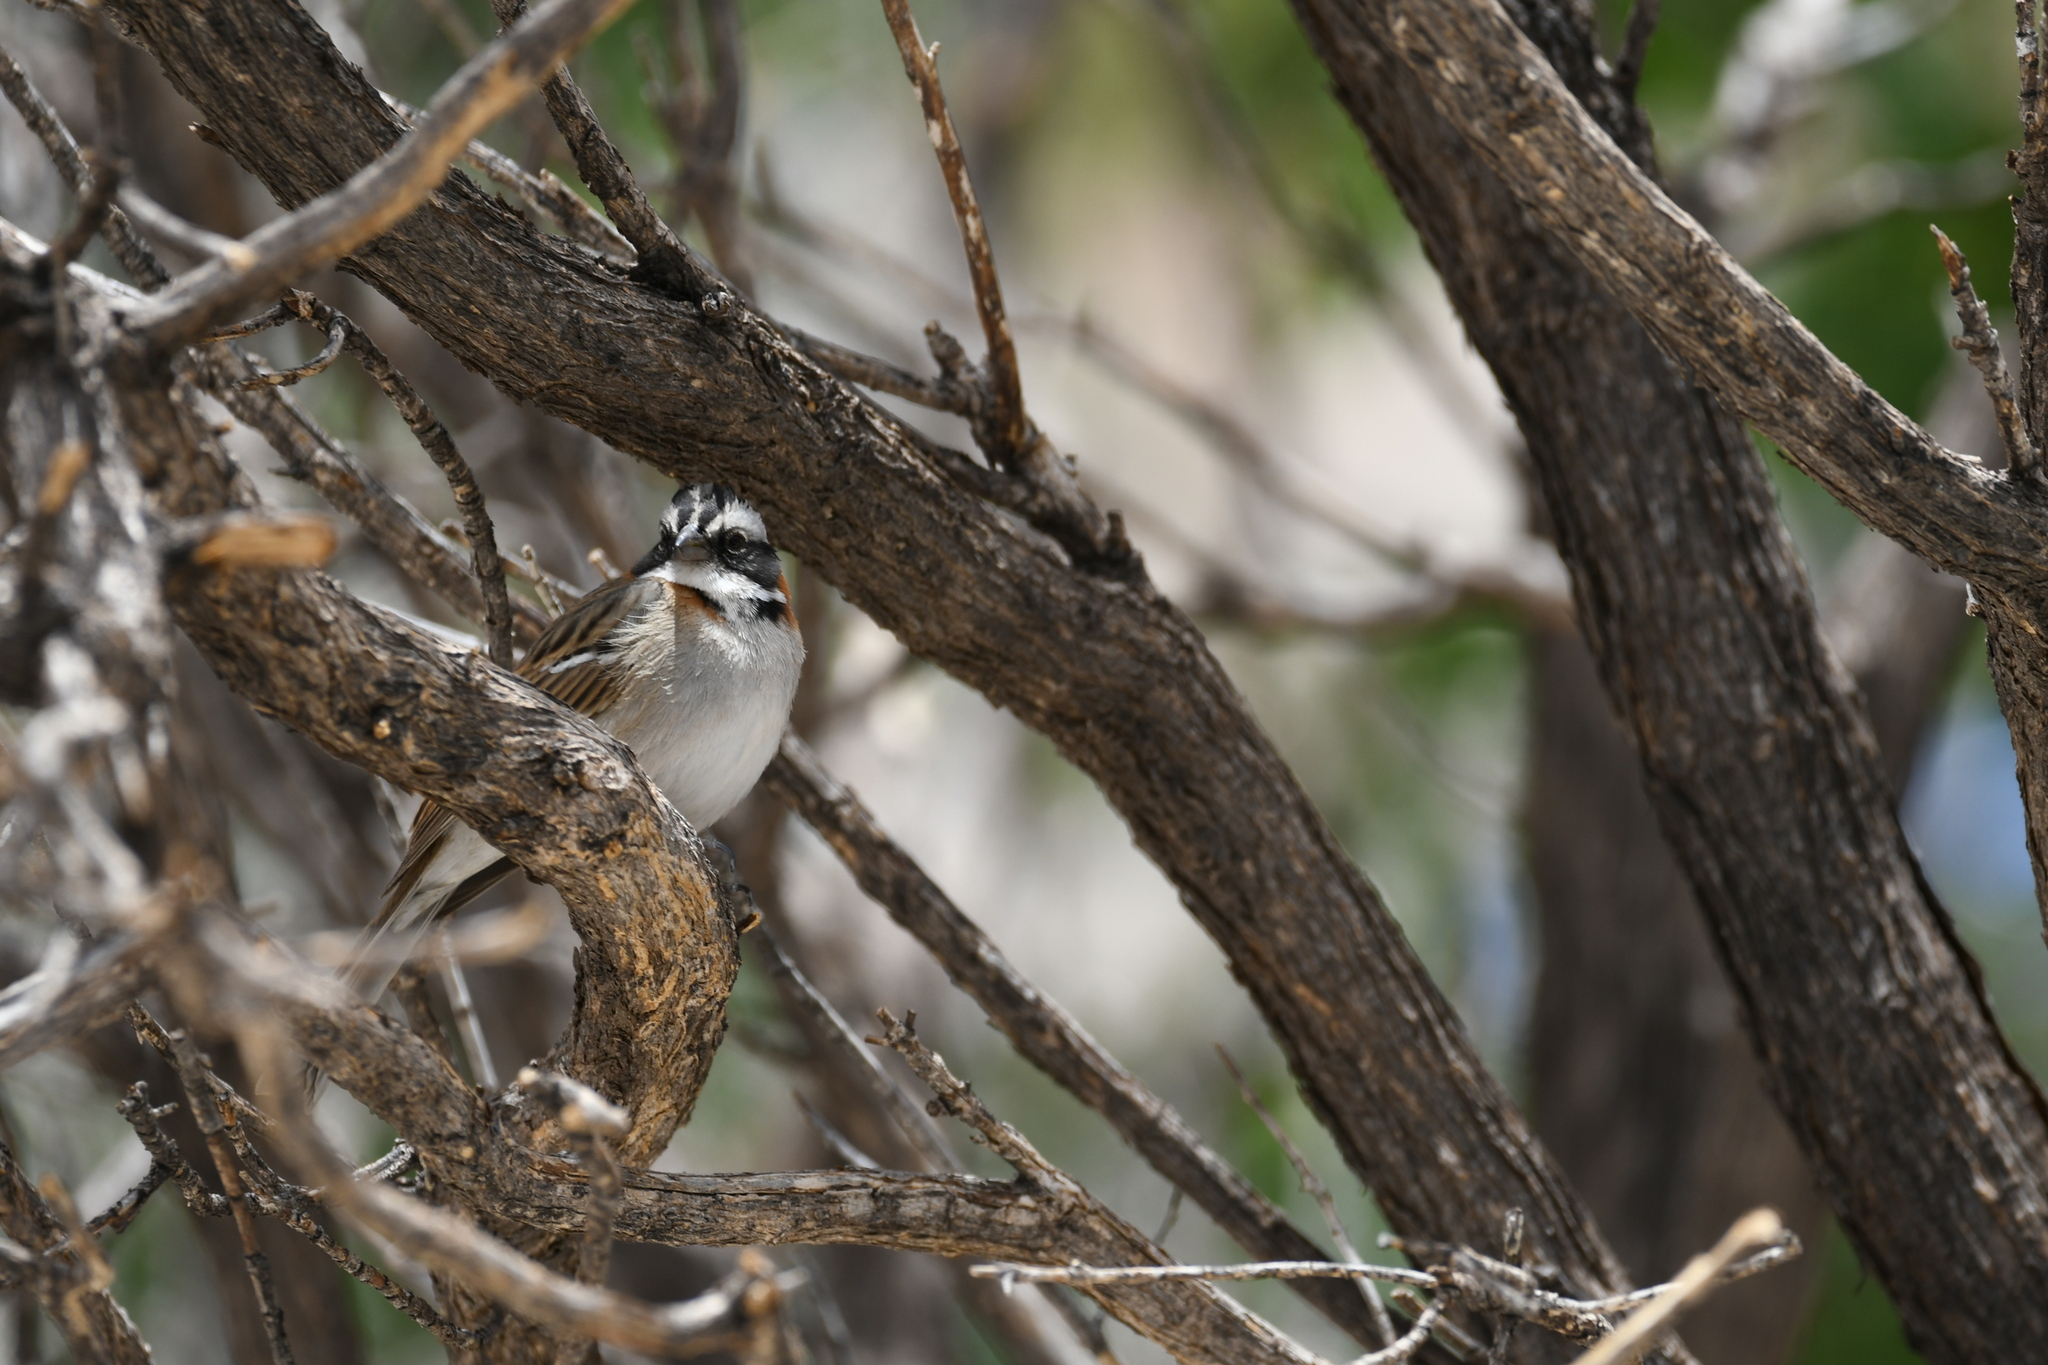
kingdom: Animalia
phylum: Chordata
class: Aves
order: Passeriformes
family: Passerellidae
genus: Zonotrichia
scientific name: Zonotrichia capensis
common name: Rufous-collared sparrow
